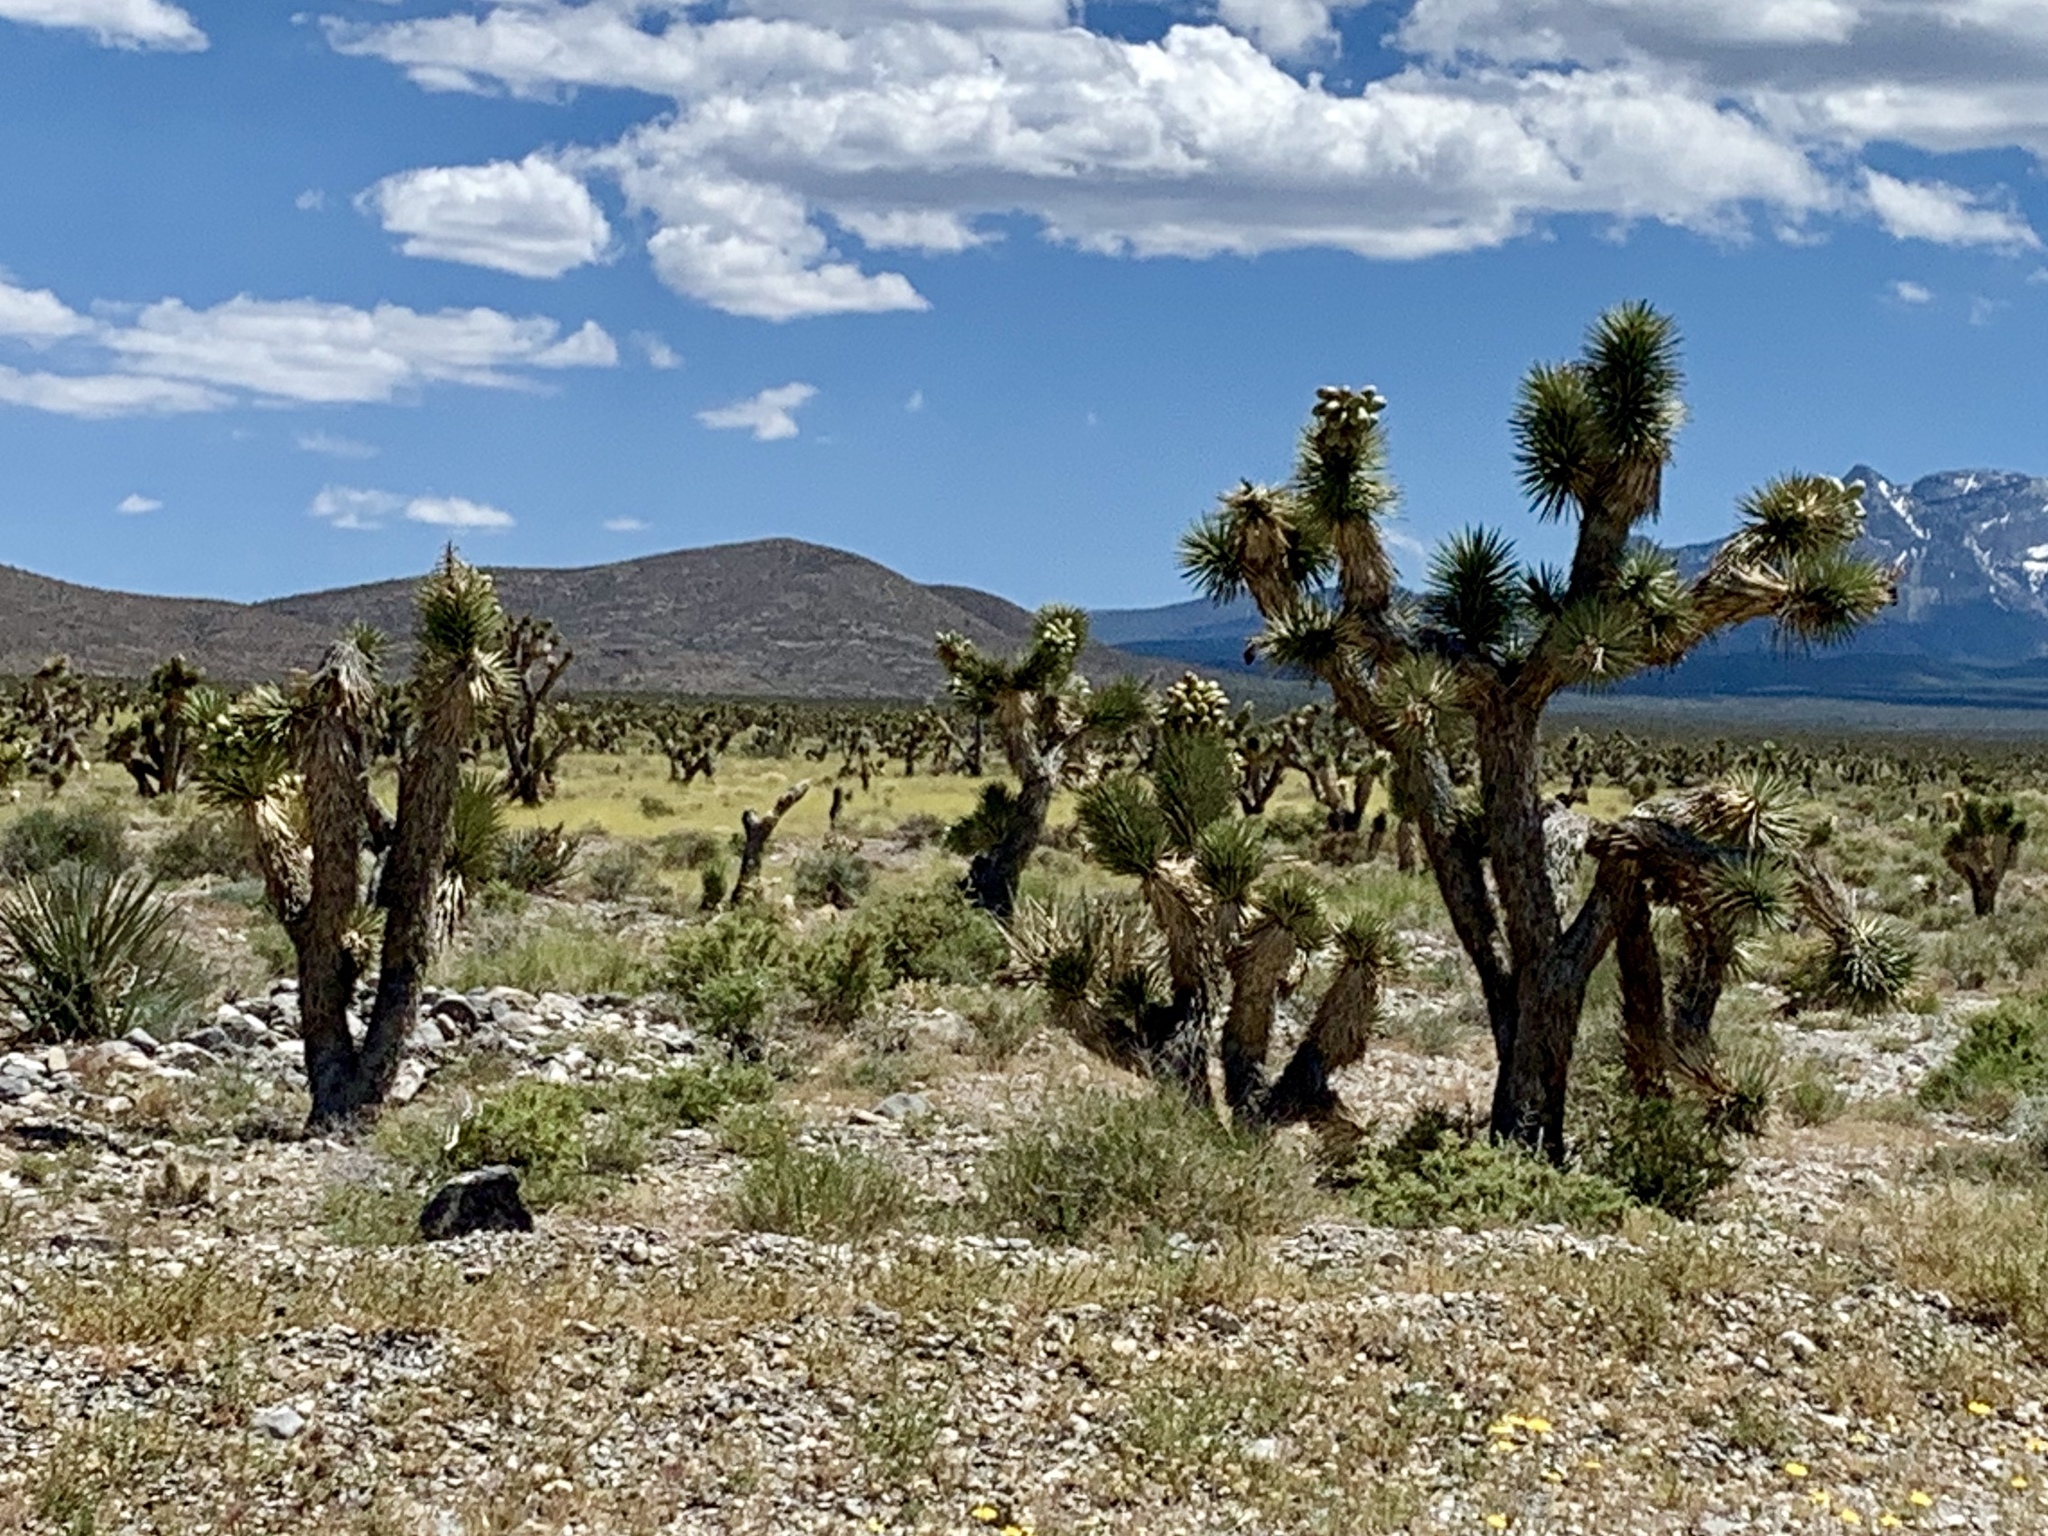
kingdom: Plantae
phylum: Tracheophyta
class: Liliopsida
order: Asparagales
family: Asparagaceae
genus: Yucca
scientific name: Yucca brevifolia
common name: Joshua tree
